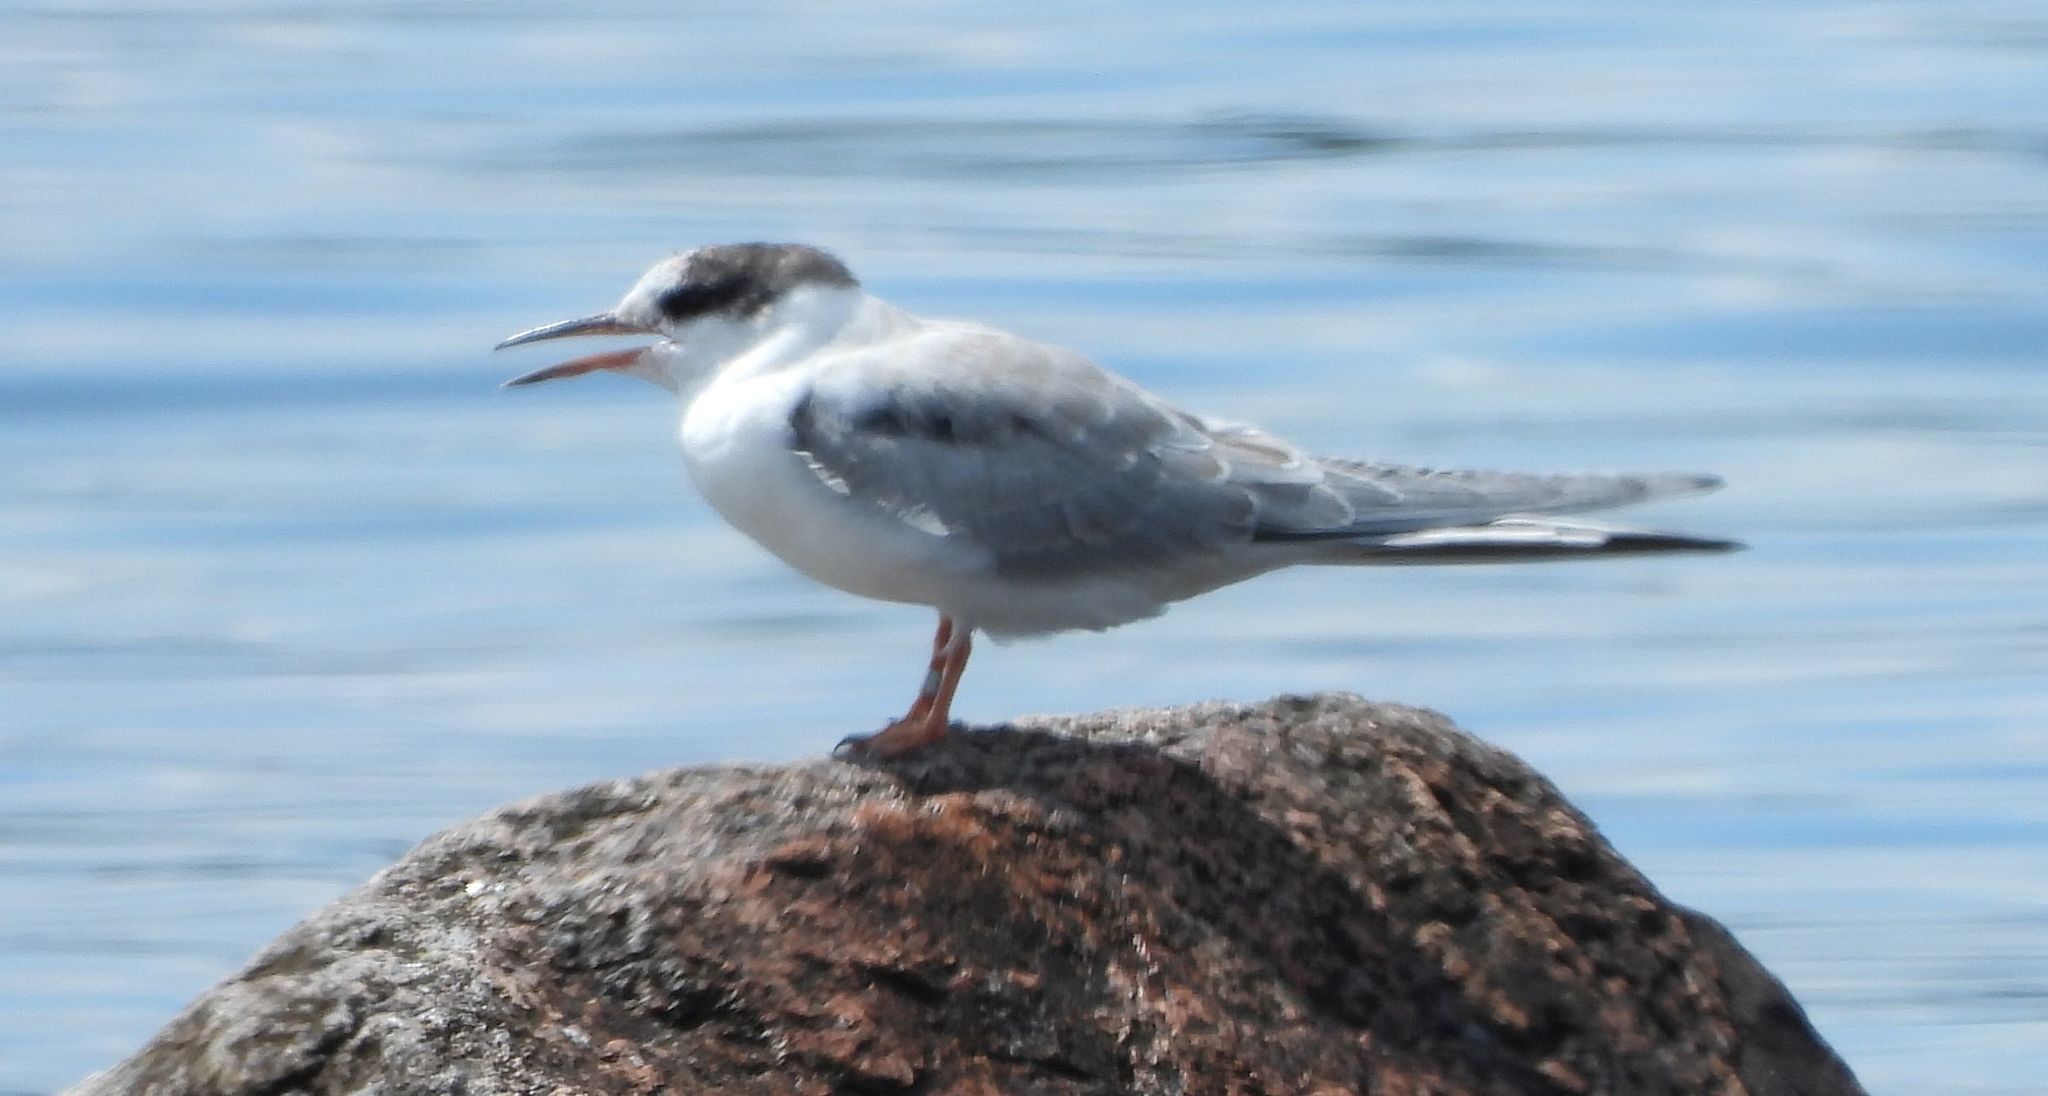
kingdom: Animalia
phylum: Chordata
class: Aves
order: Charadriiformes
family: Laridae
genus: Sterna
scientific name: Sterna hirundo
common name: Common tern
